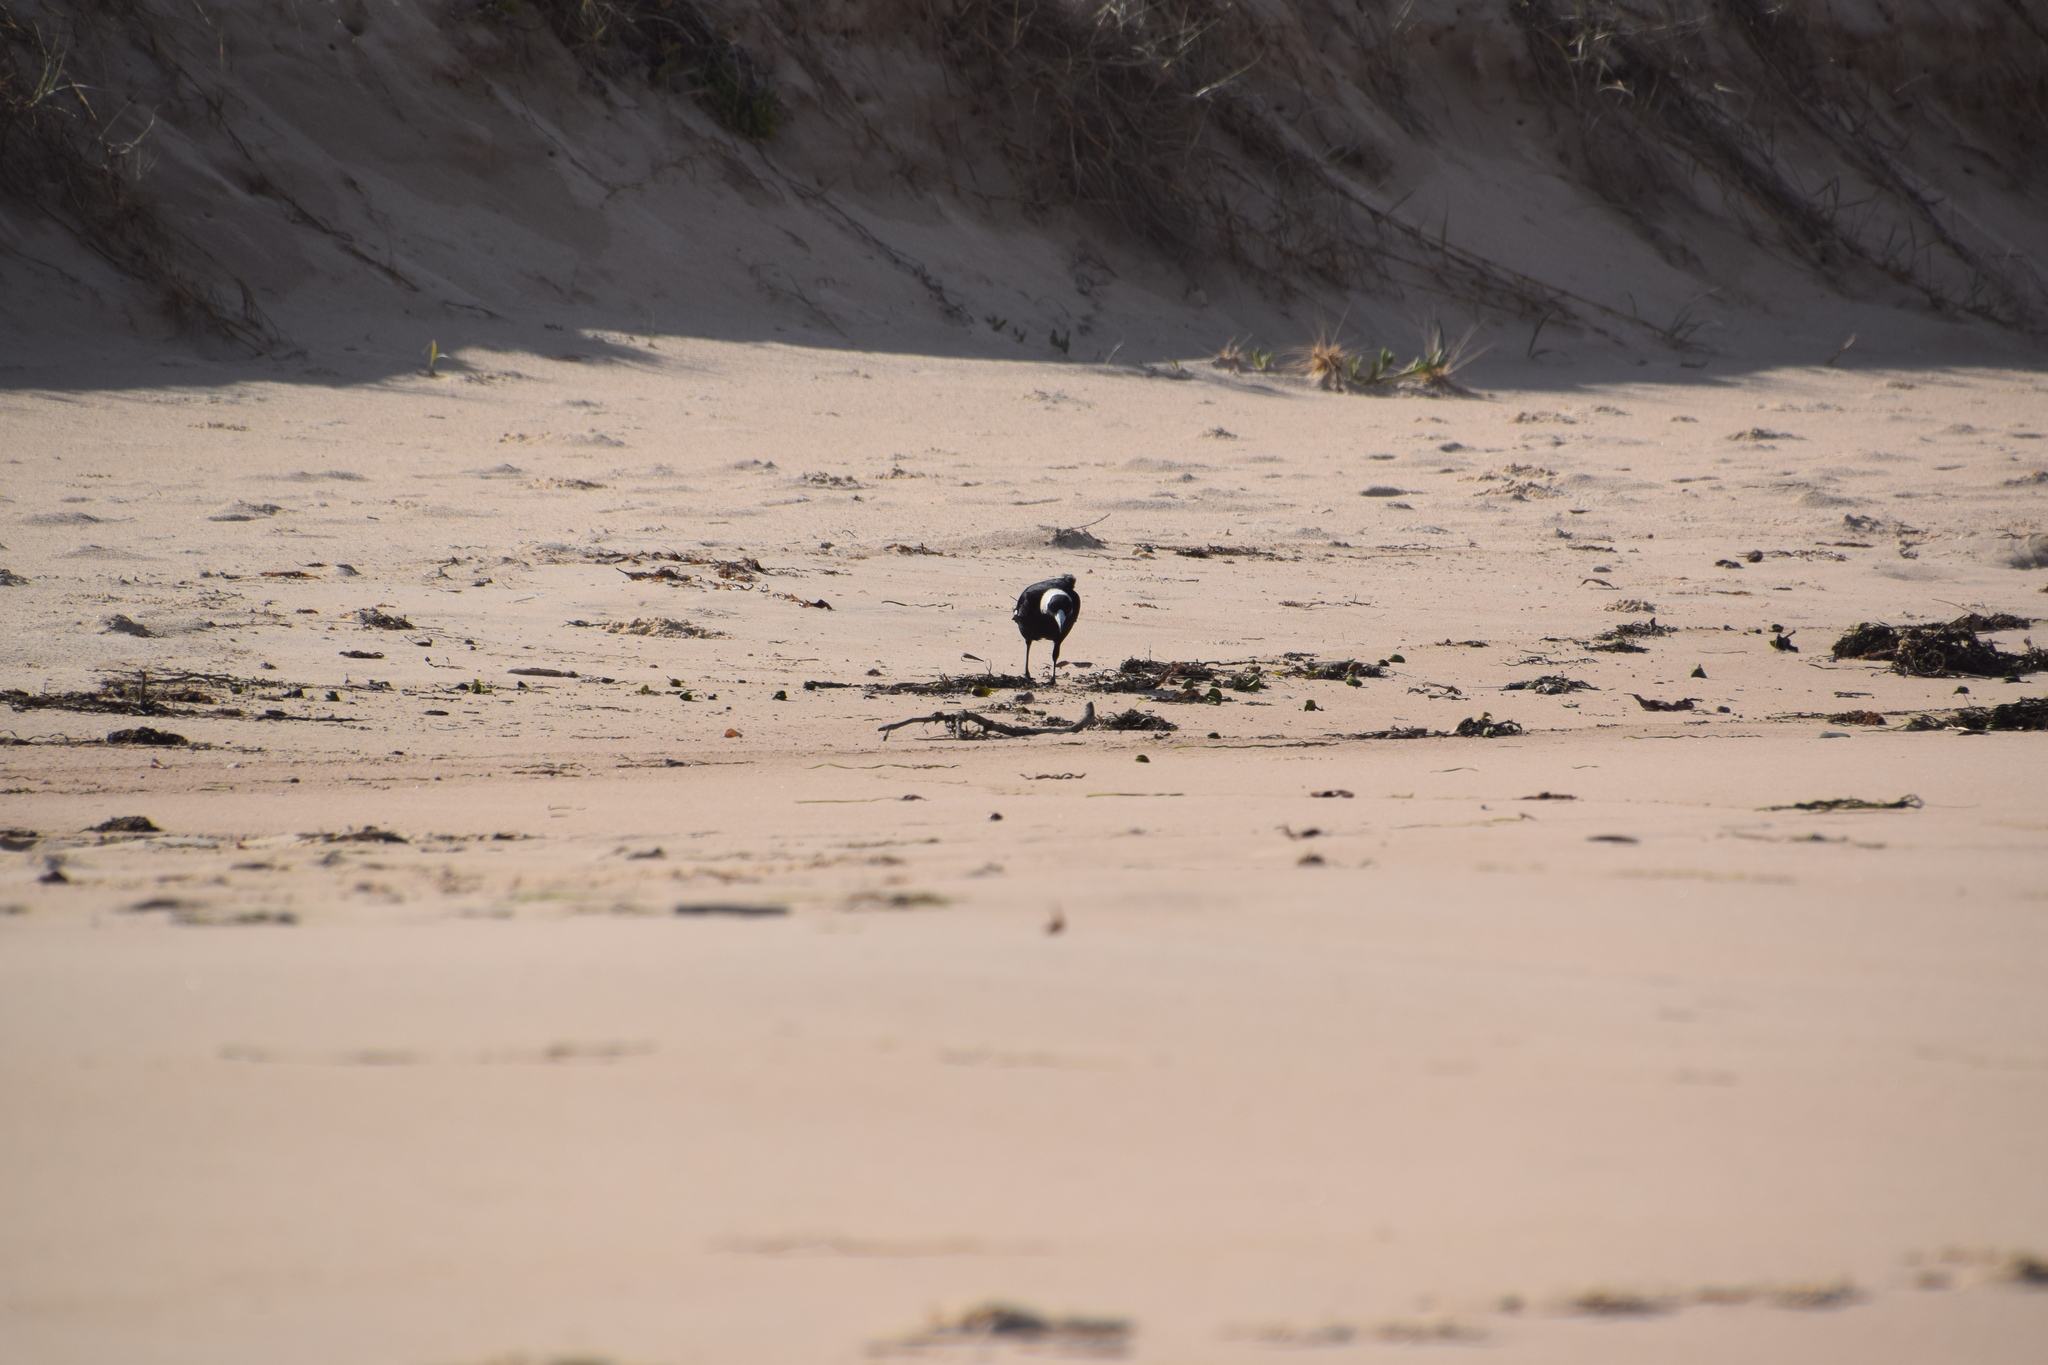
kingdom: Animalia
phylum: Chordata
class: Aves
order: Passeriformes
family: Cracticidae
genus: Gymnorhina
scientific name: Gymnorhina tibicen
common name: Australian magpie
